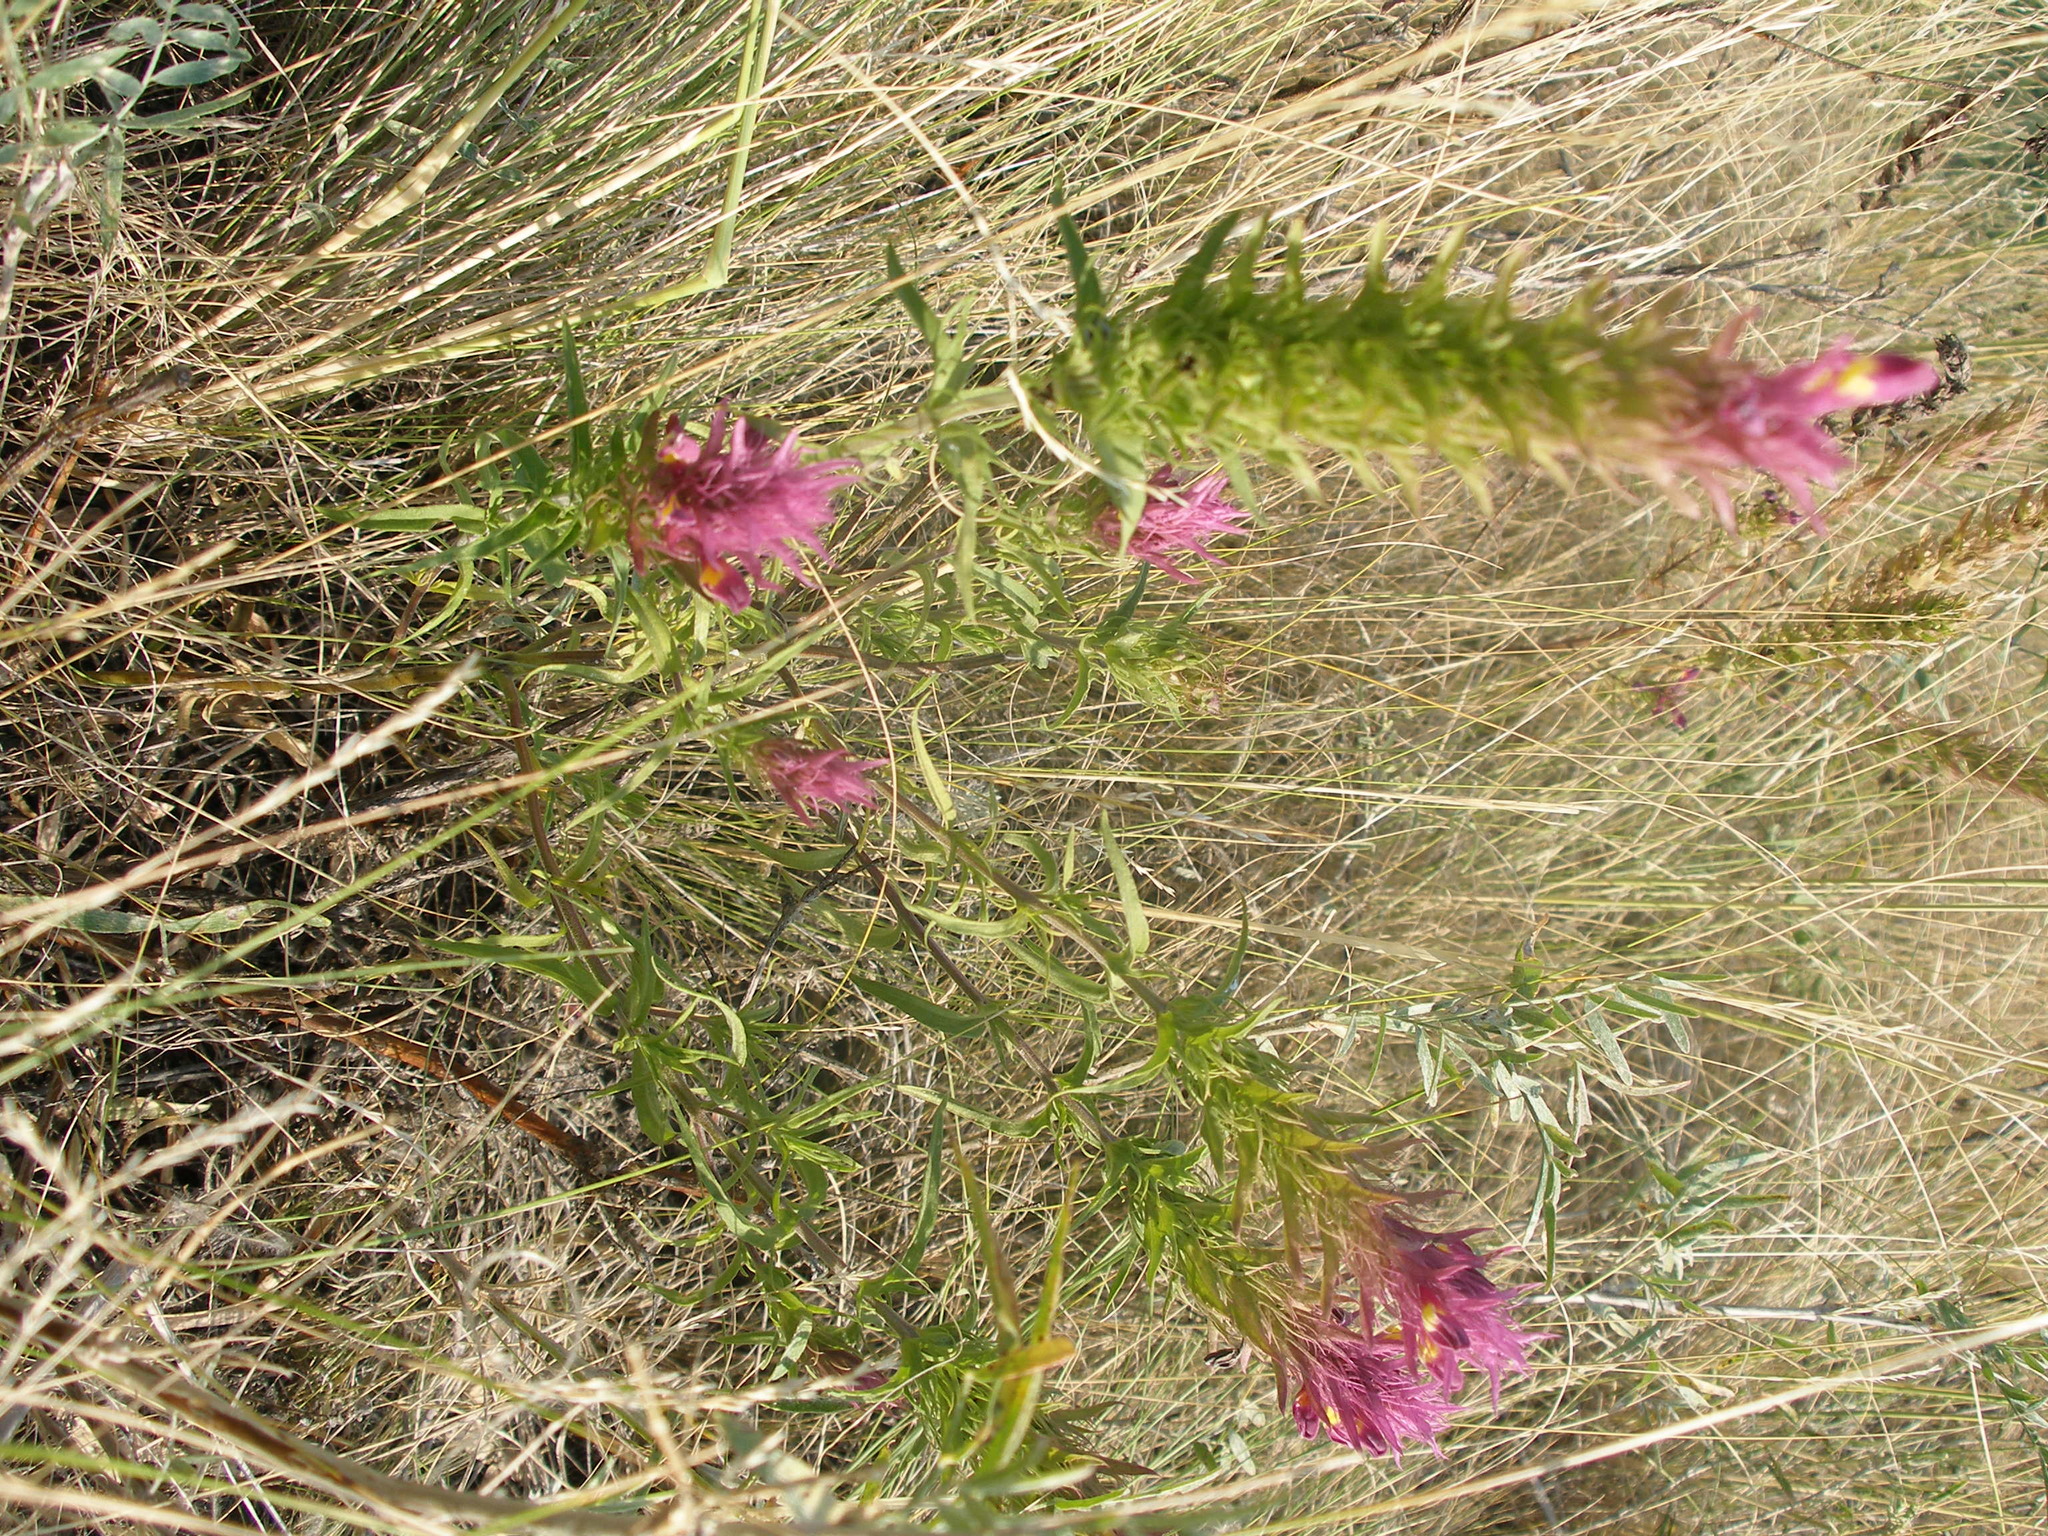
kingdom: Plantae
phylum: Tracheophyta
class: Magnoliopsida
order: Lamiales
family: Orobanchaceae
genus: Melampyrum
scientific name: Melampyrum arvense
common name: Field cow-wheat
